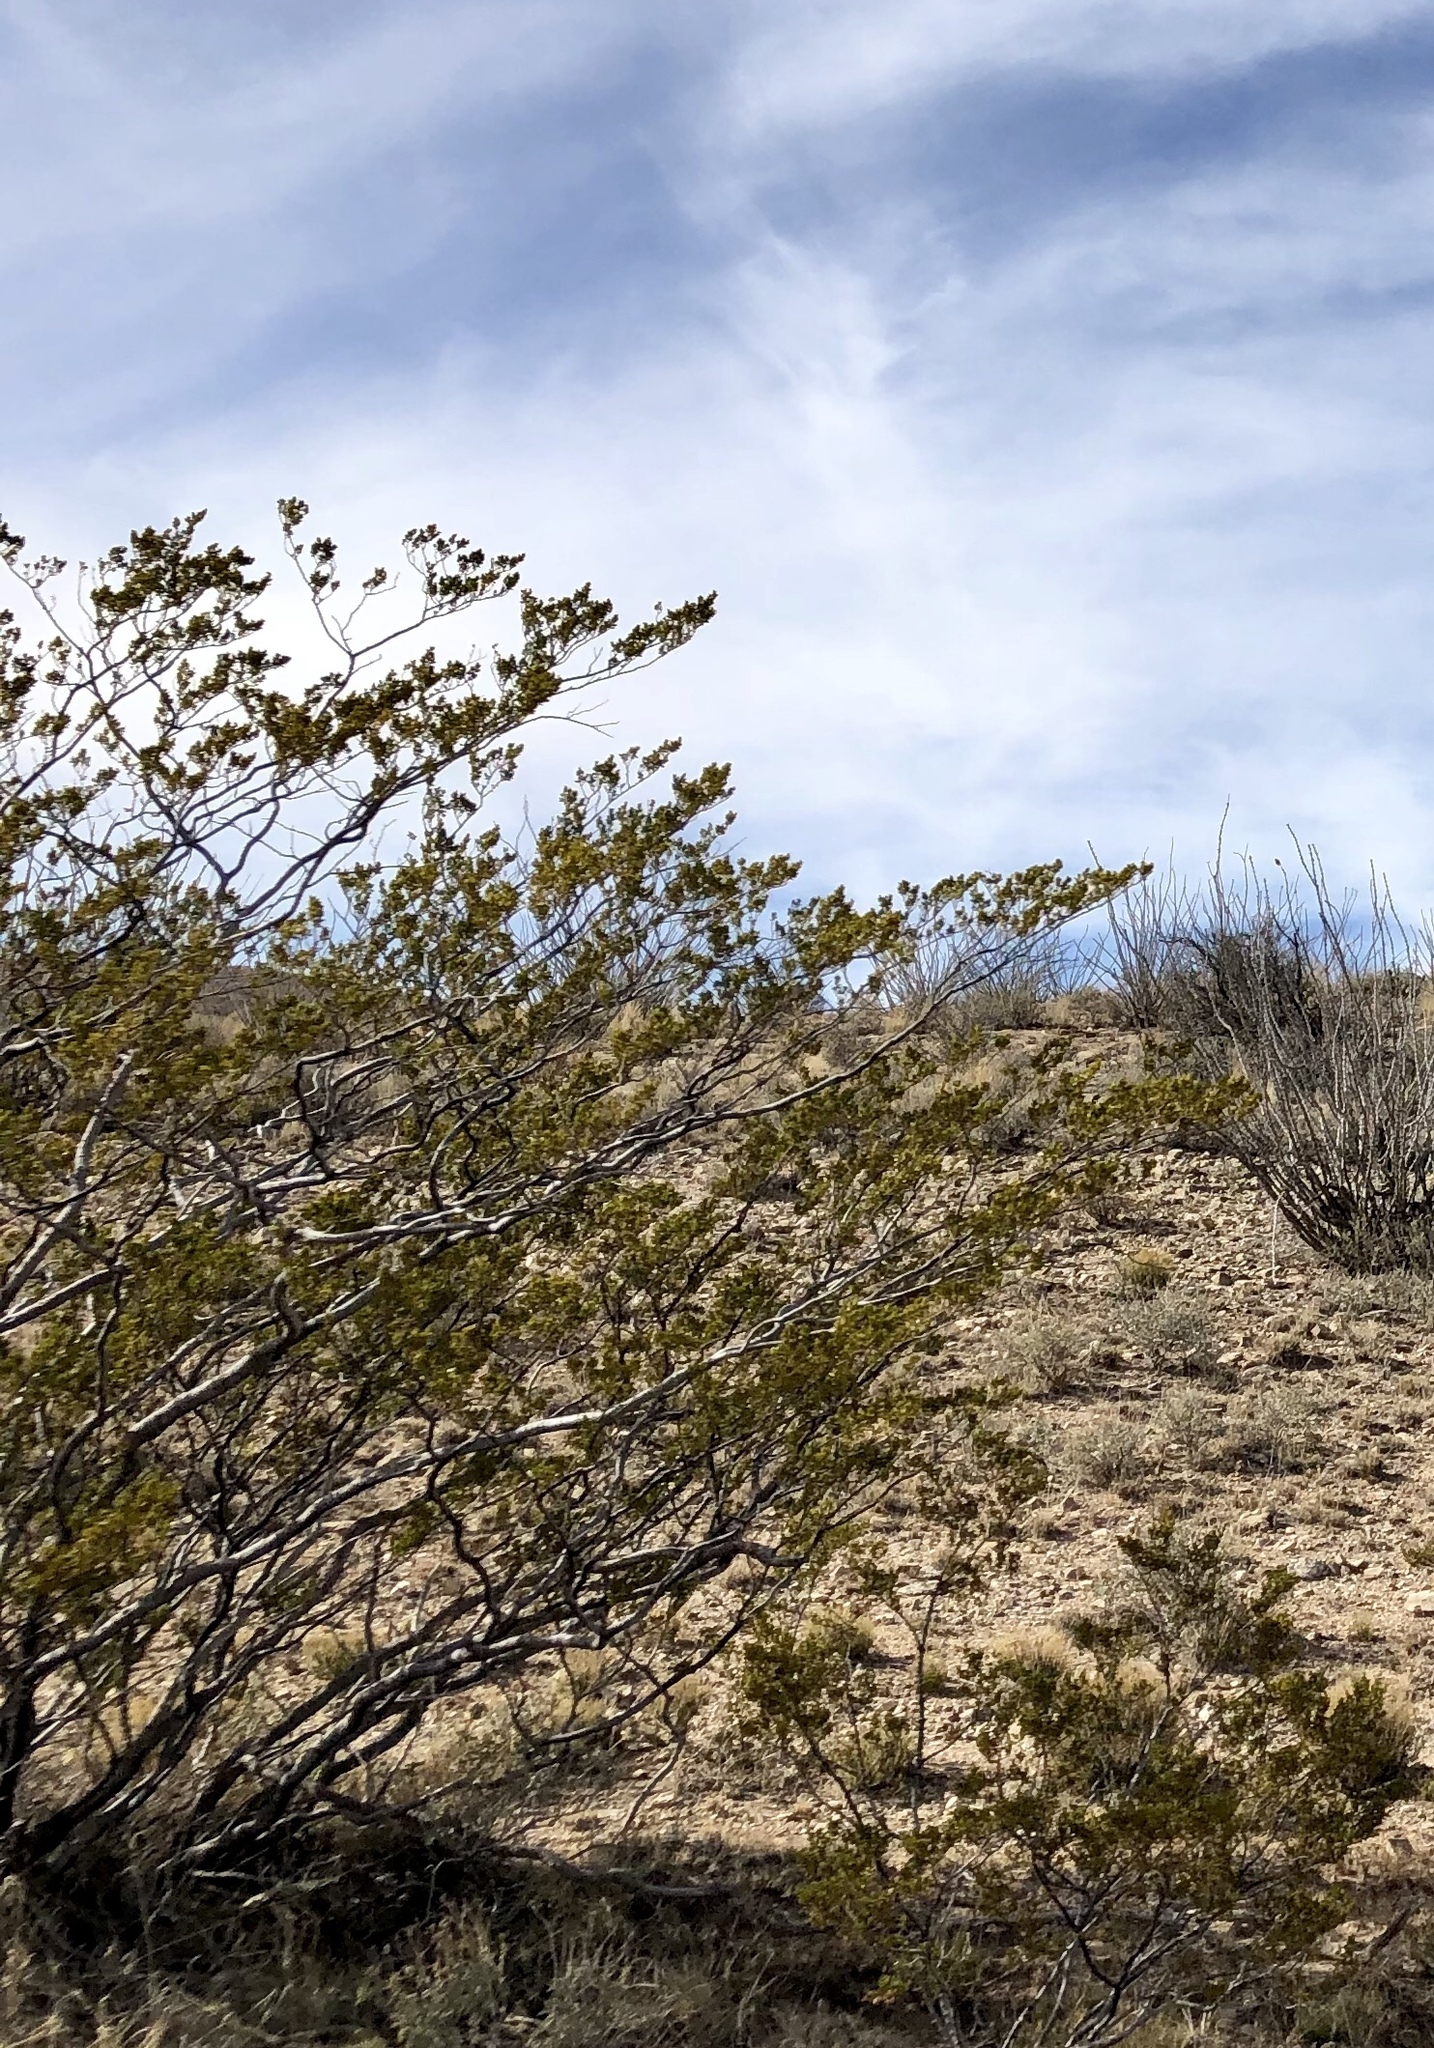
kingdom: Plantae
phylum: Tracheophyta
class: Magnoliopsida
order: Zygophyllales
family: Zygophyllaceae
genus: Larrea
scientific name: Larrea tridentata
